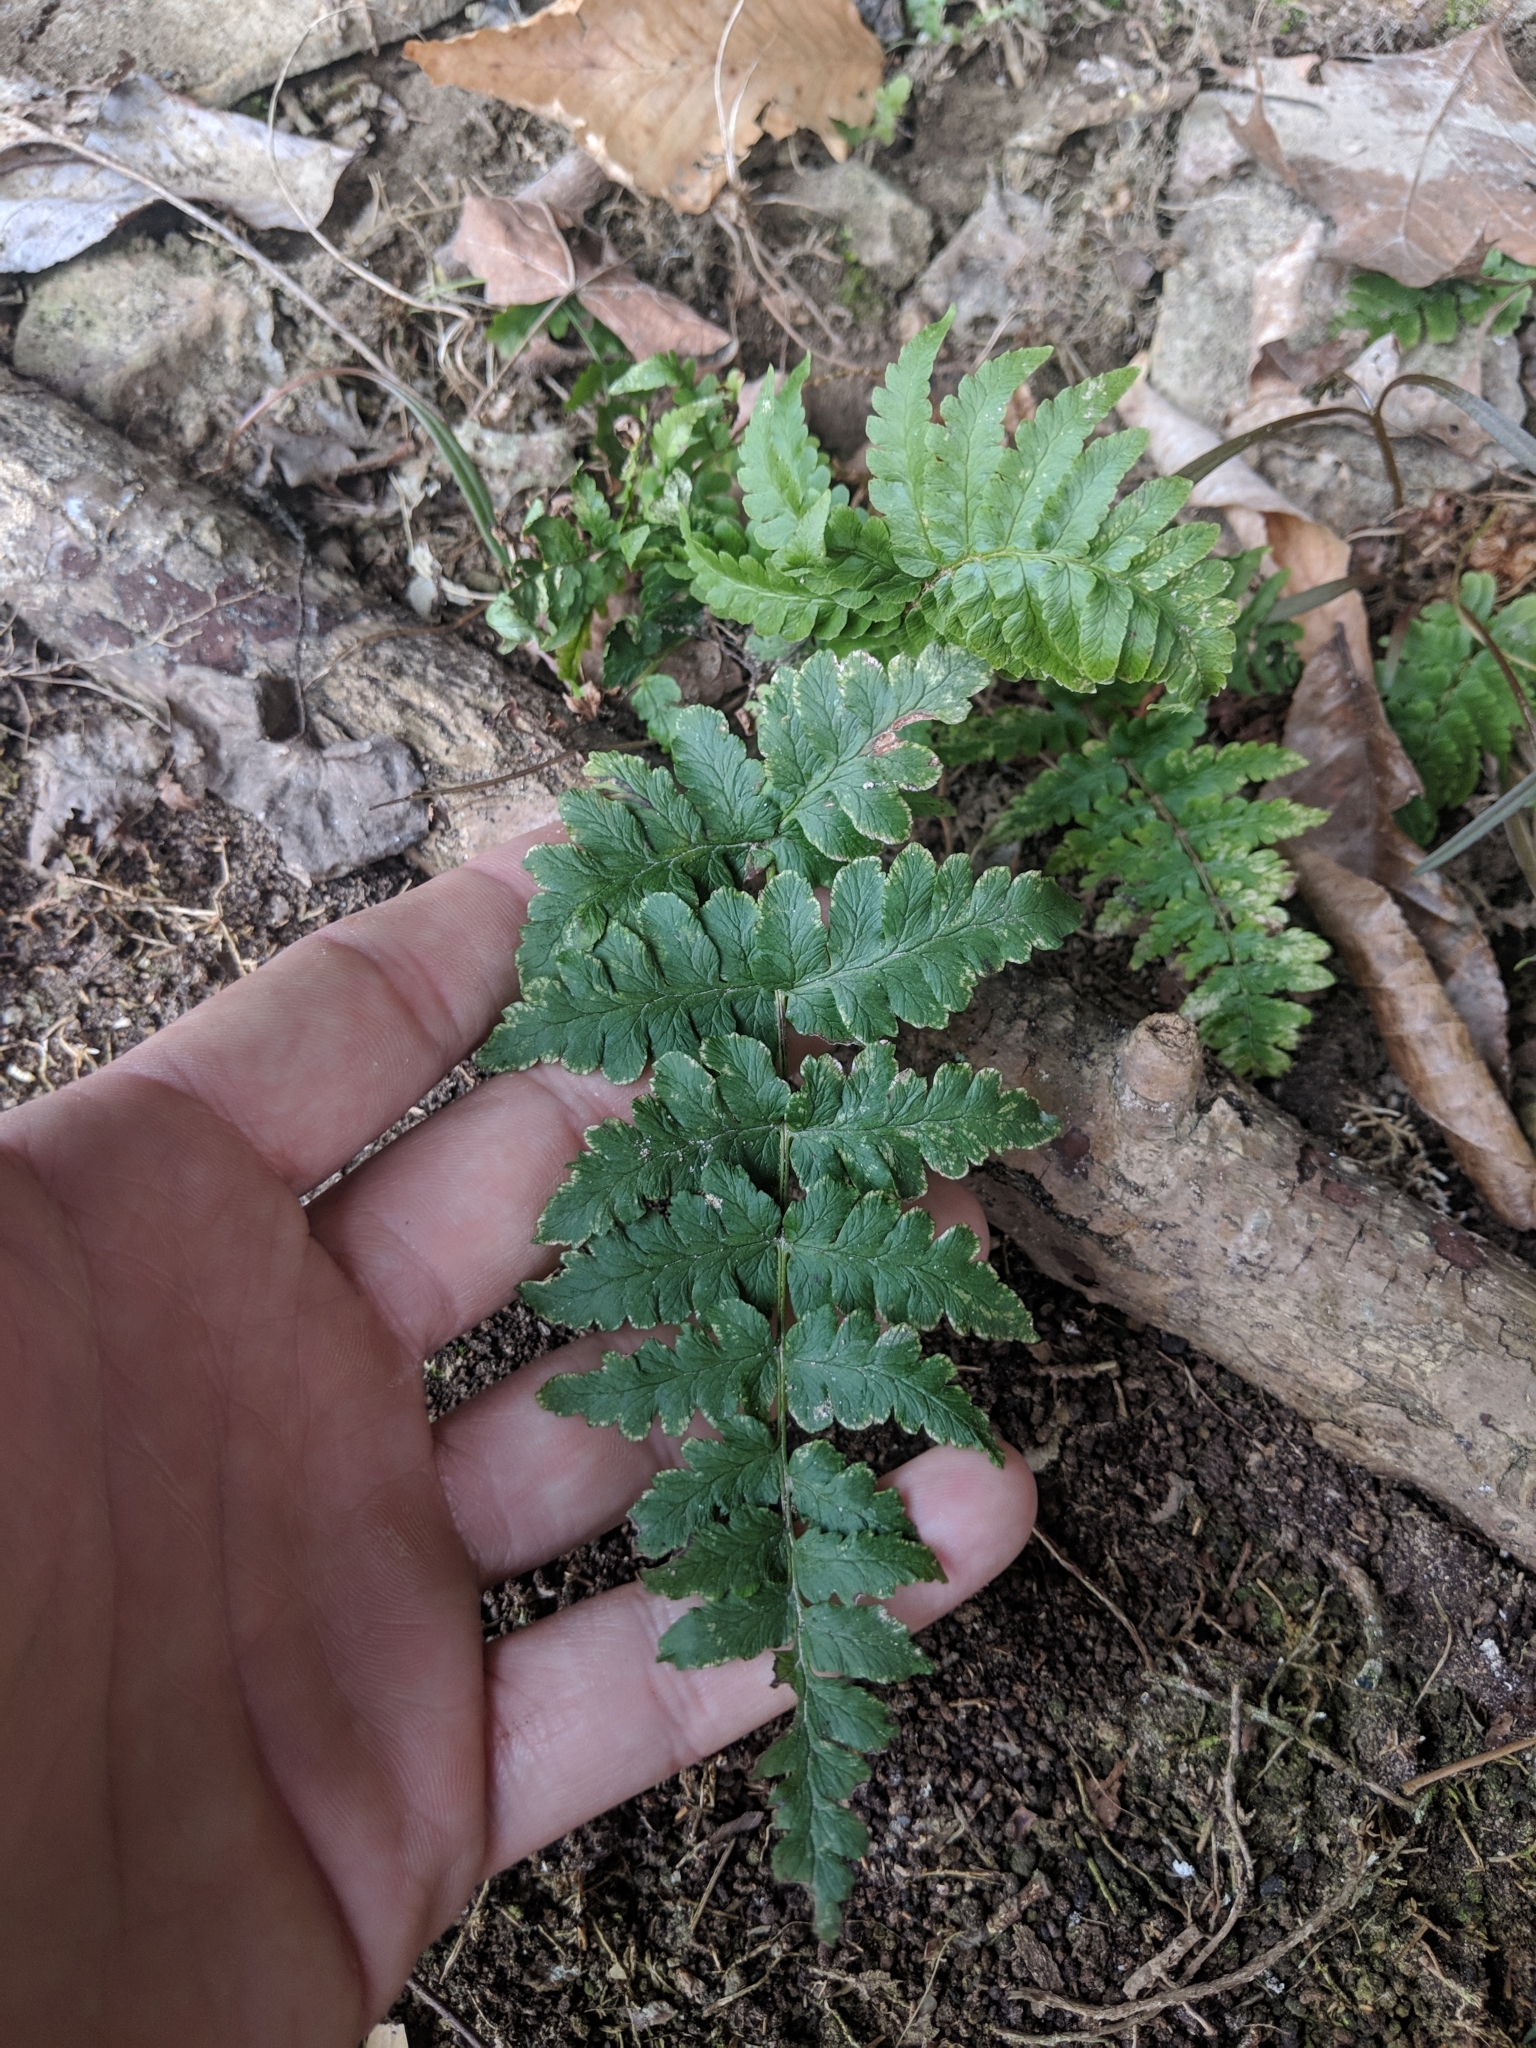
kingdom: Plantae
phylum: Tracheophyta
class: Polypodiopsida
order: Polypodiales
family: Dryopteridaceae
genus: Dryopteris
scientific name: Dryopteris marginalis
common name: Marginal wood fern
